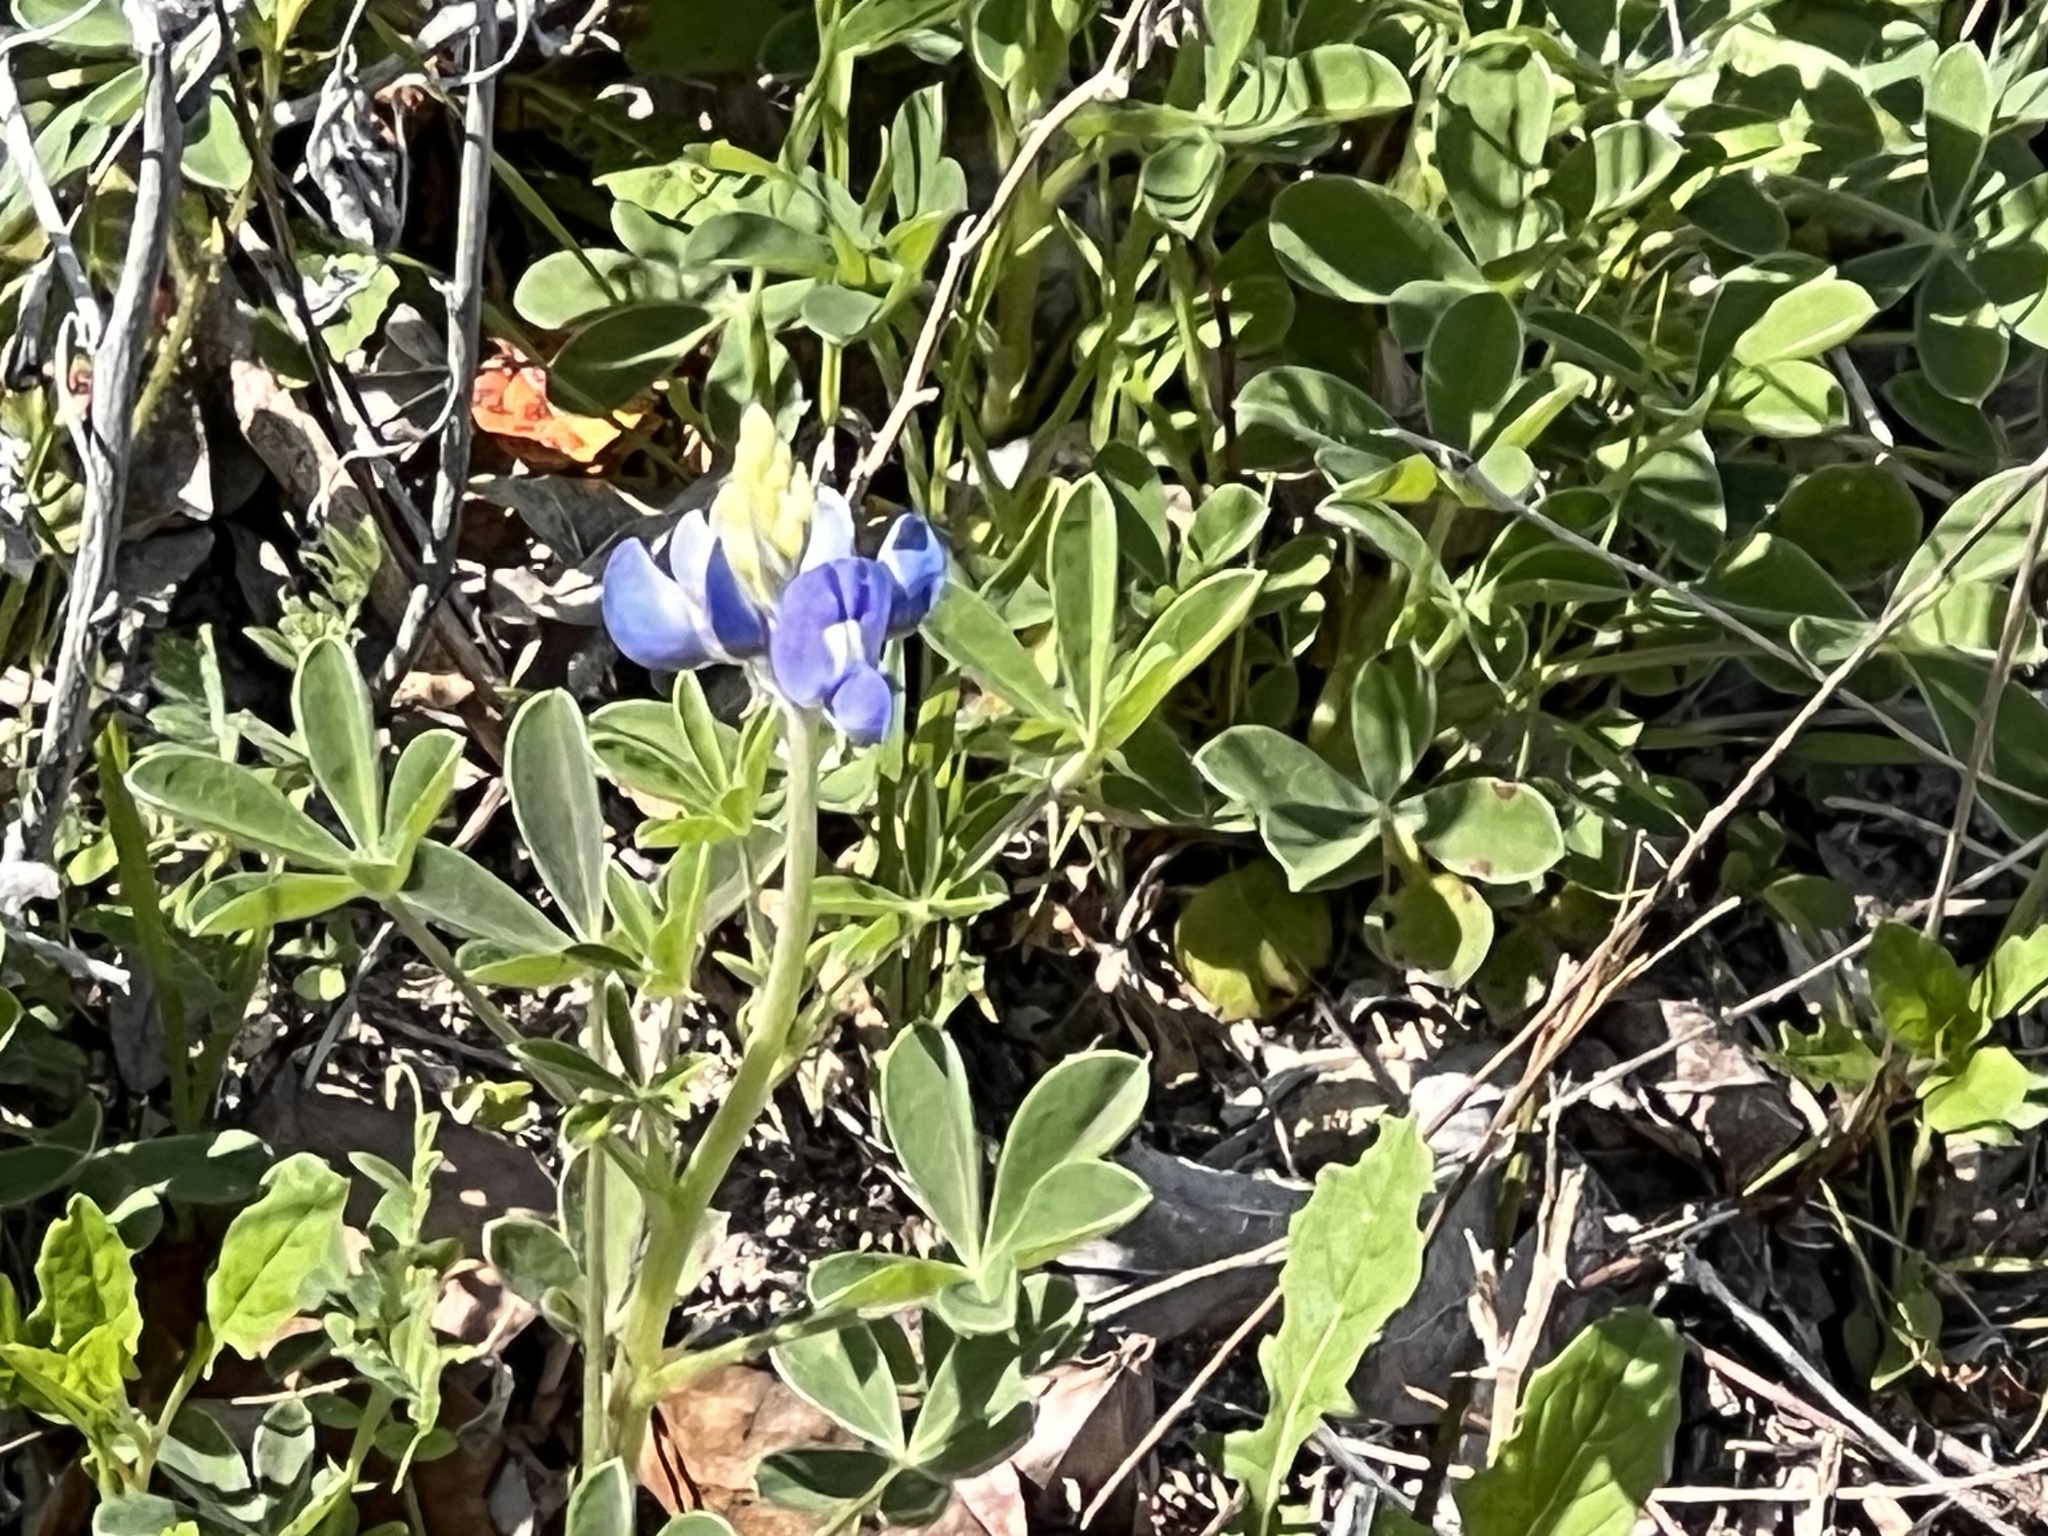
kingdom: Plantae
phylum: Tracheophyta
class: Magnoliopsida
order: Fabales
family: Fabaceae
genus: Lupinus
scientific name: Lupinus texensis
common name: Texas bluebonnet
